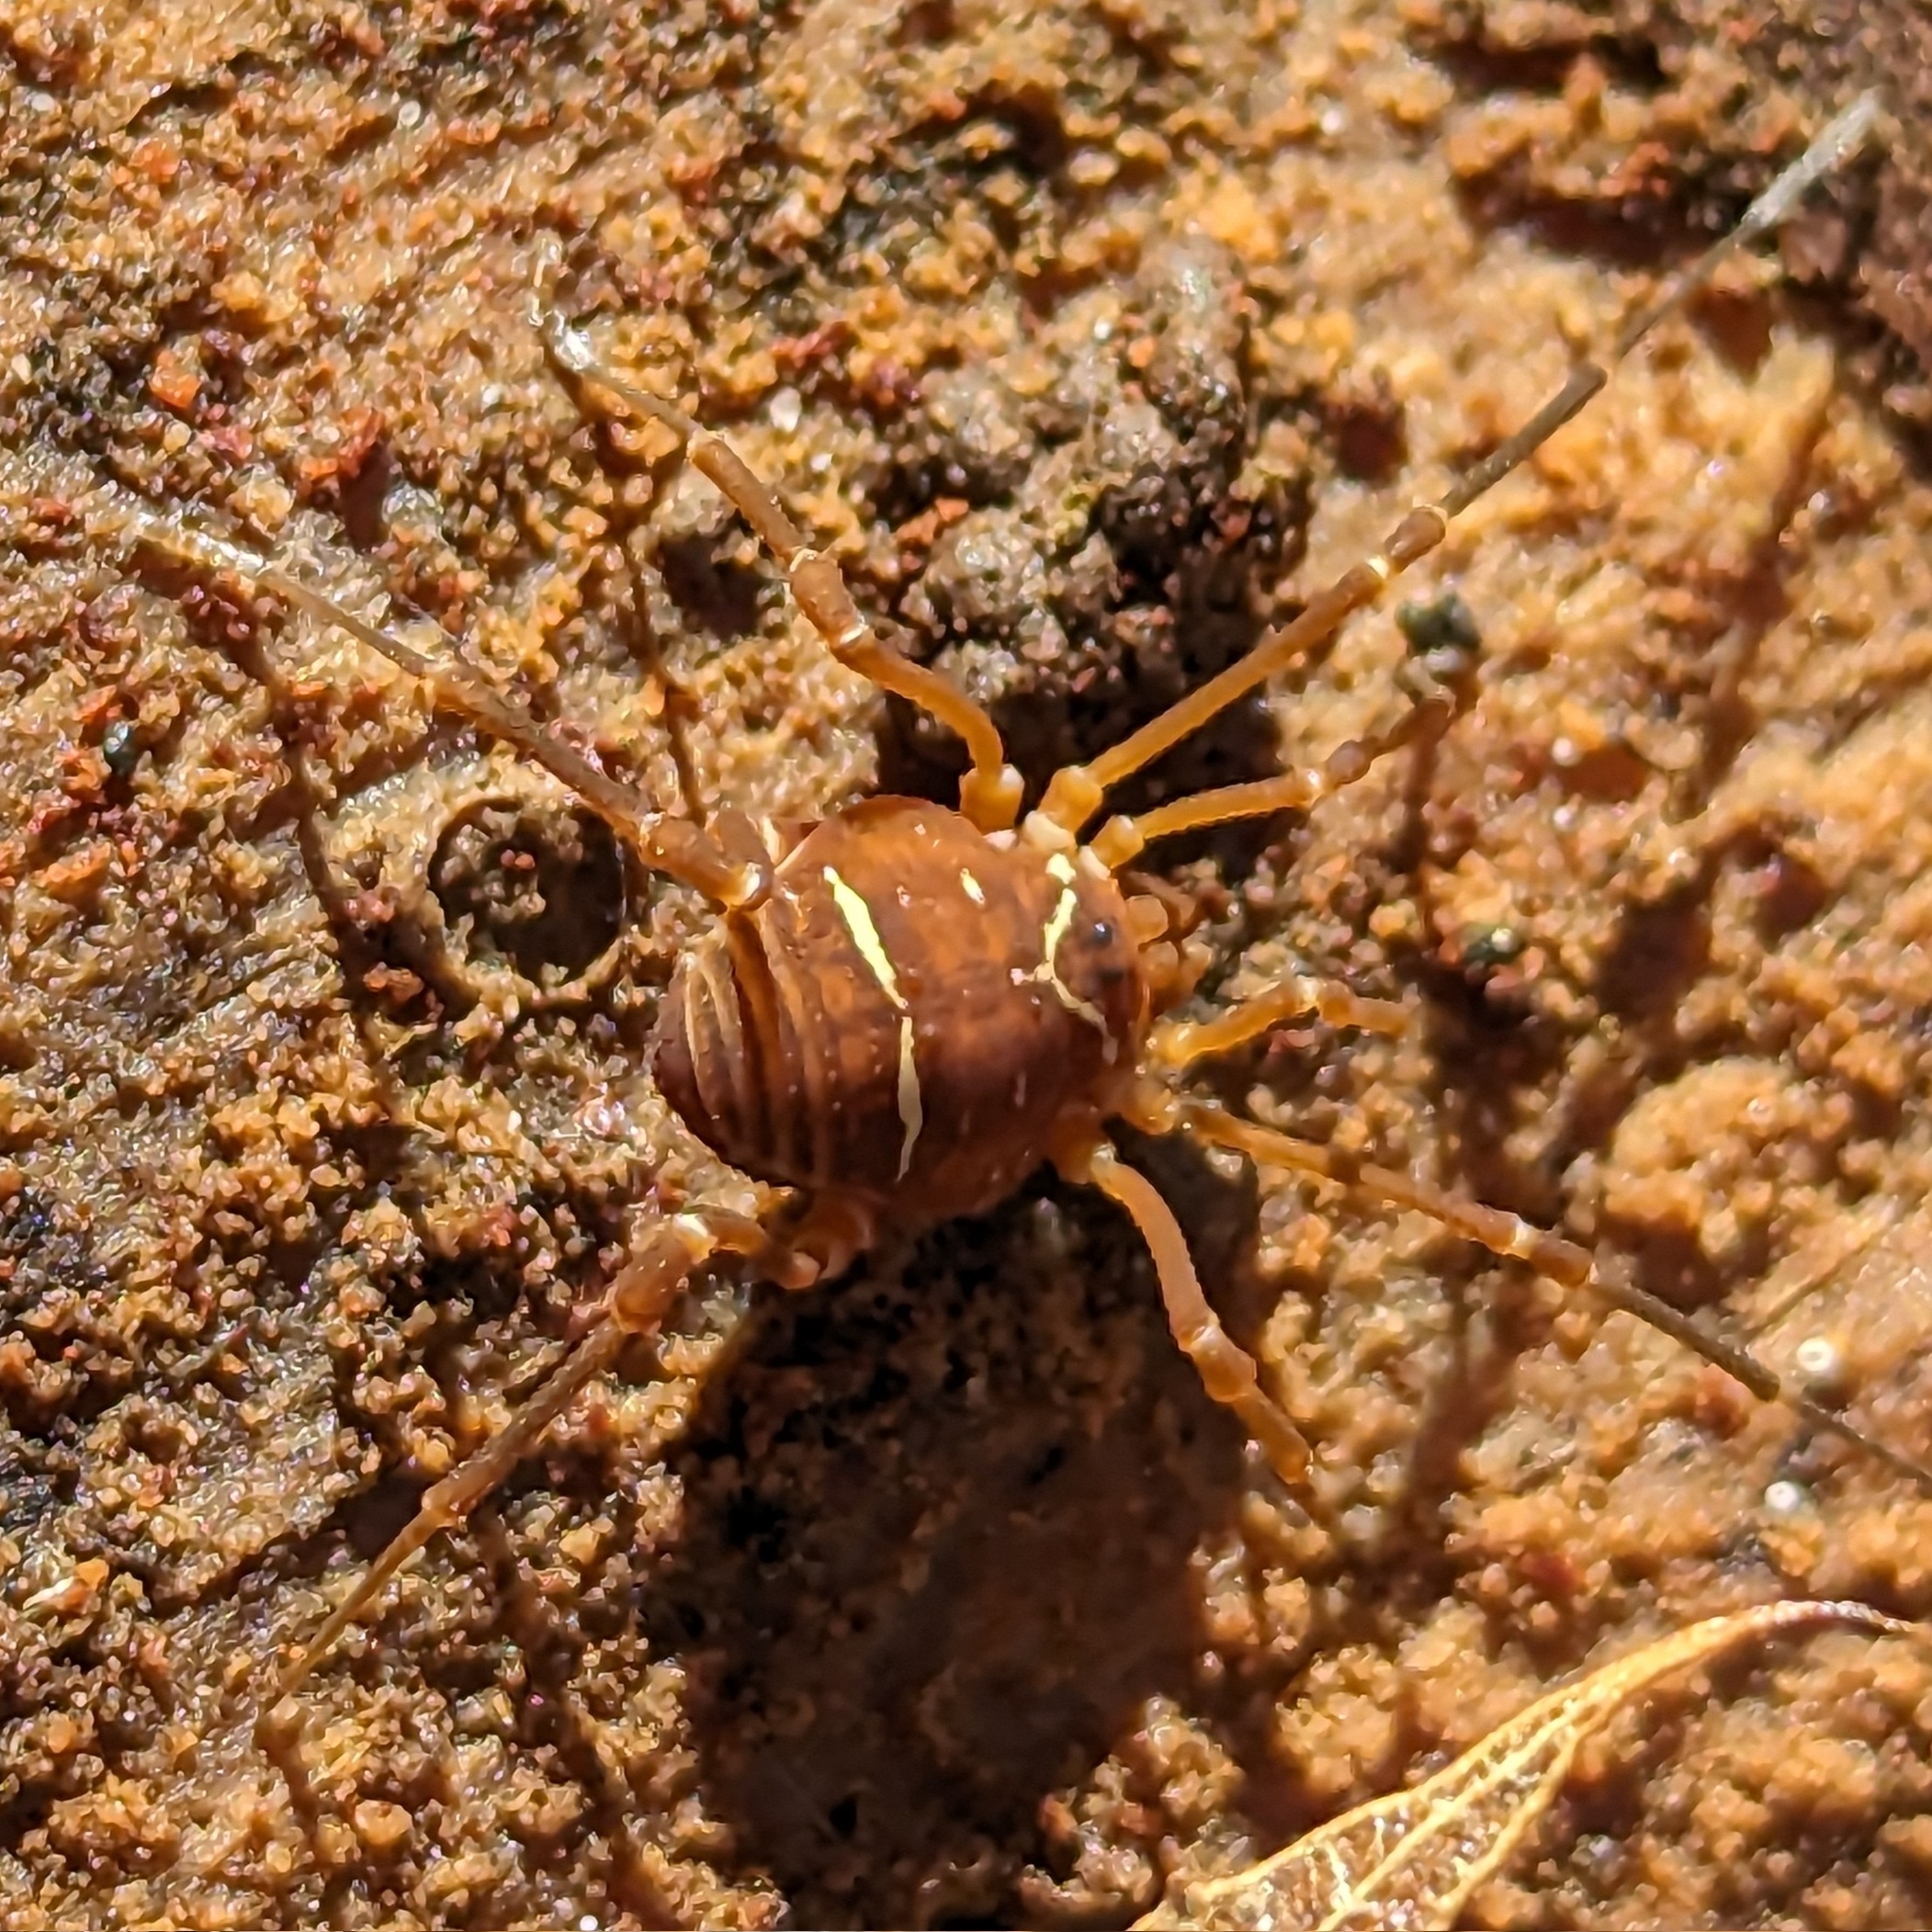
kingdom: Animalia
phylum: Arthropoda
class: Arachnida
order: Opiliones
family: Cosmetidae
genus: Libitioides
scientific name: Libitioides sayi
